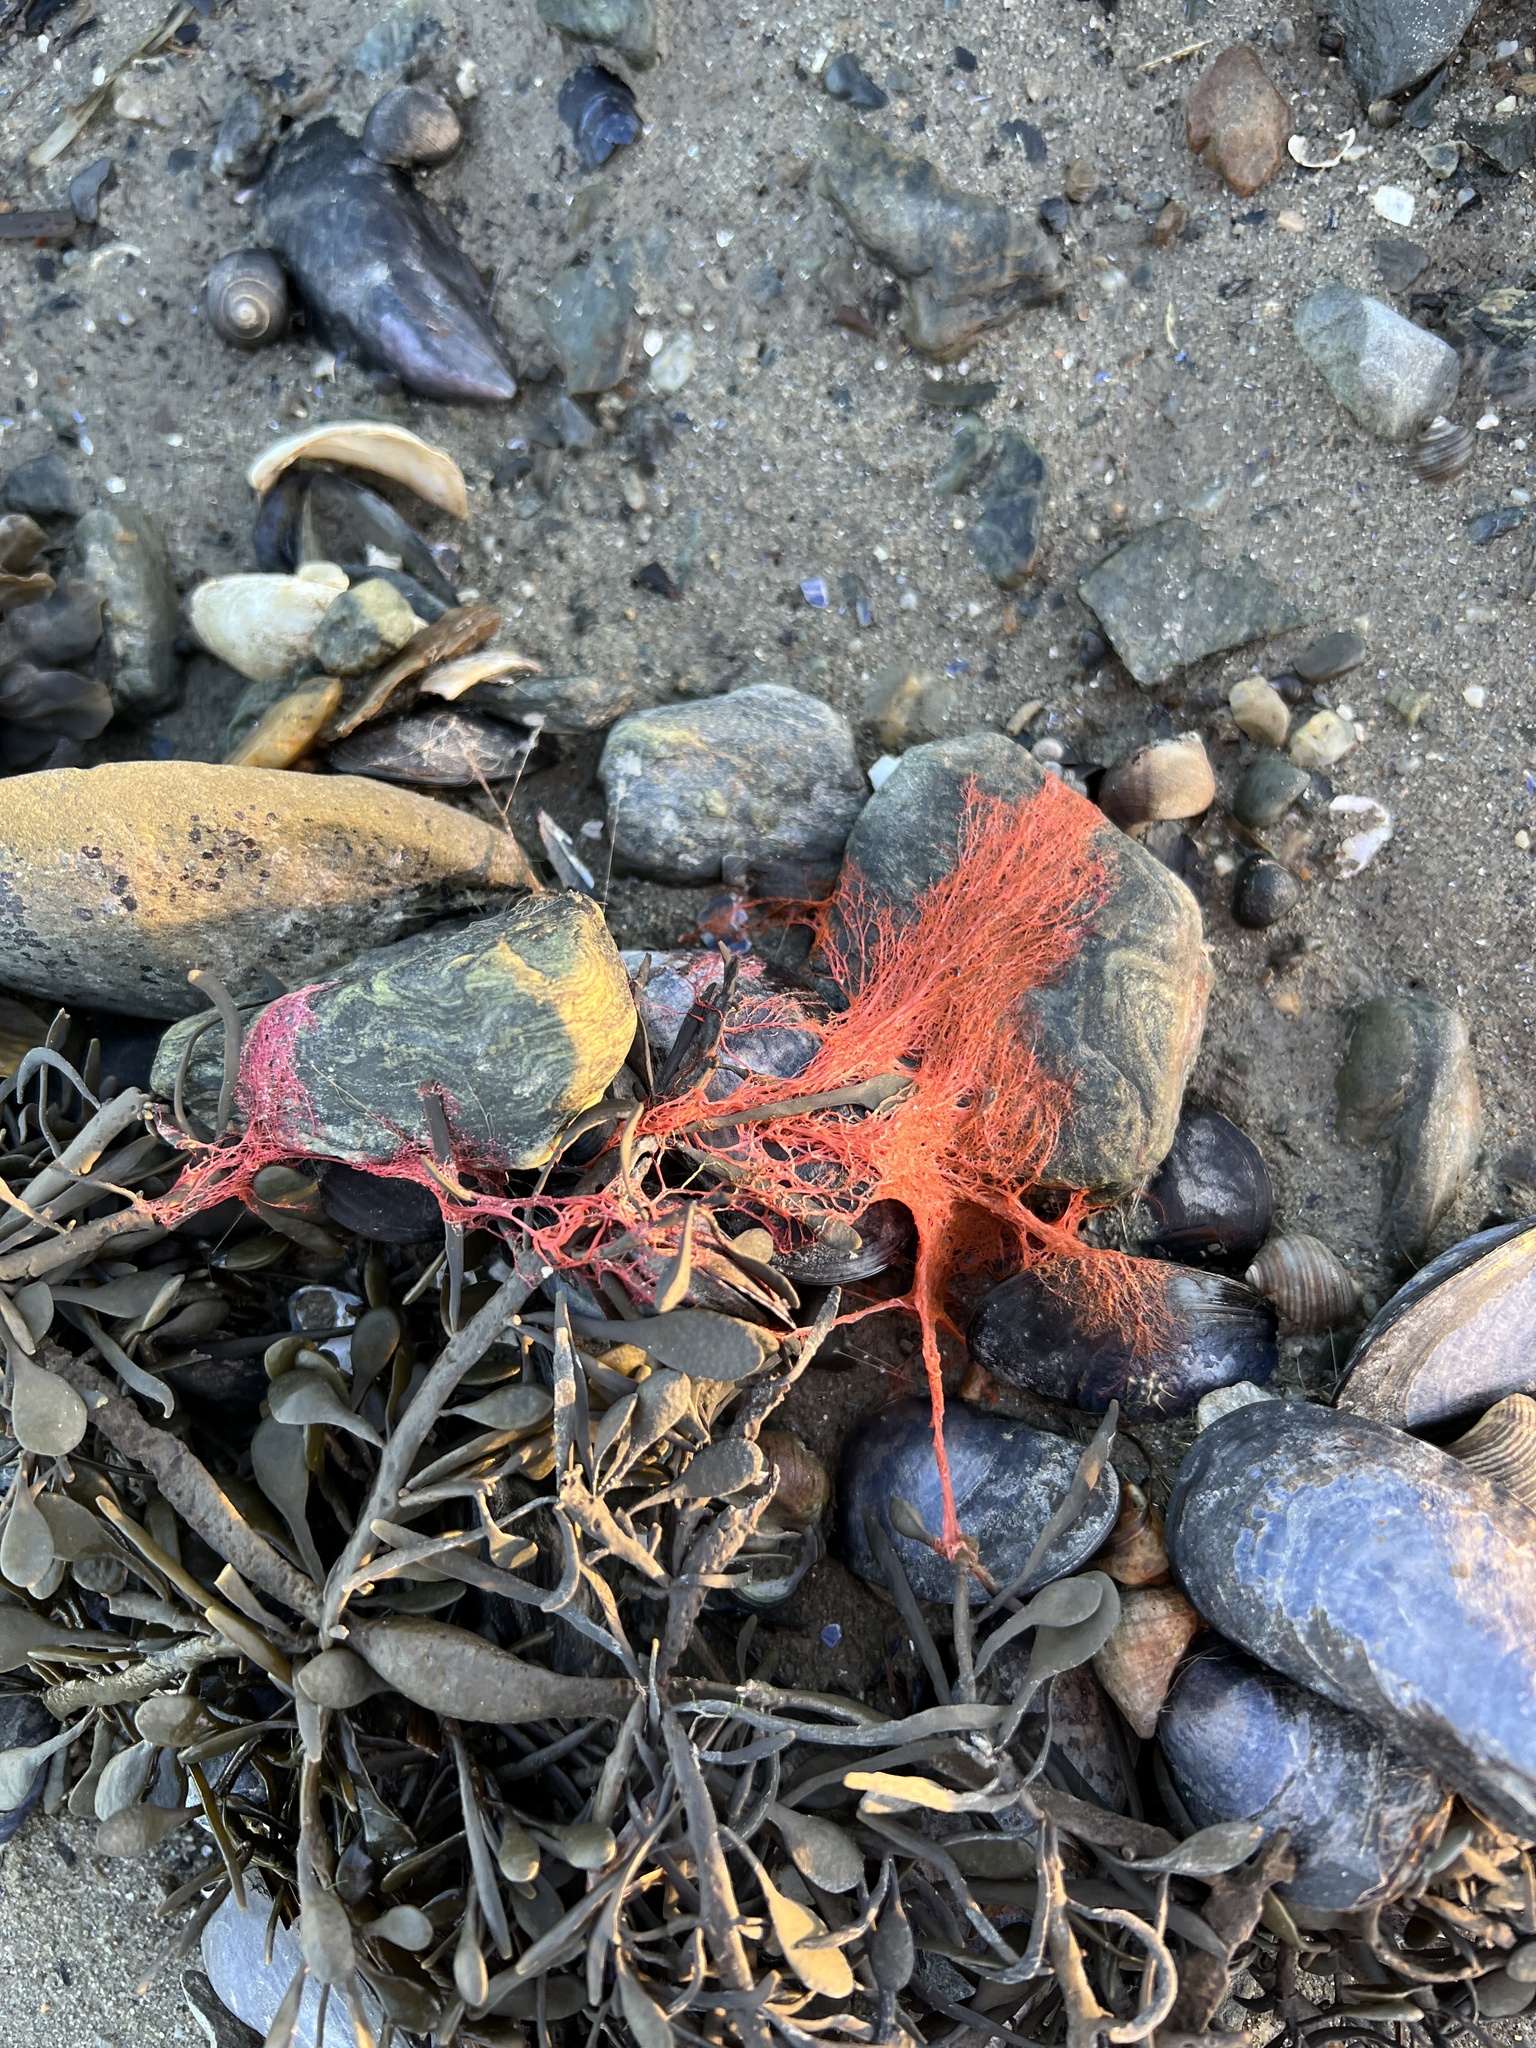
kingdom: Plantae
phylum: Rhodophyta
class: Florideophyceae
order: Ceramiales
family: Dasyaceae
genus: Dasysiphonia
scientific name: Dasysiphonia japonica
